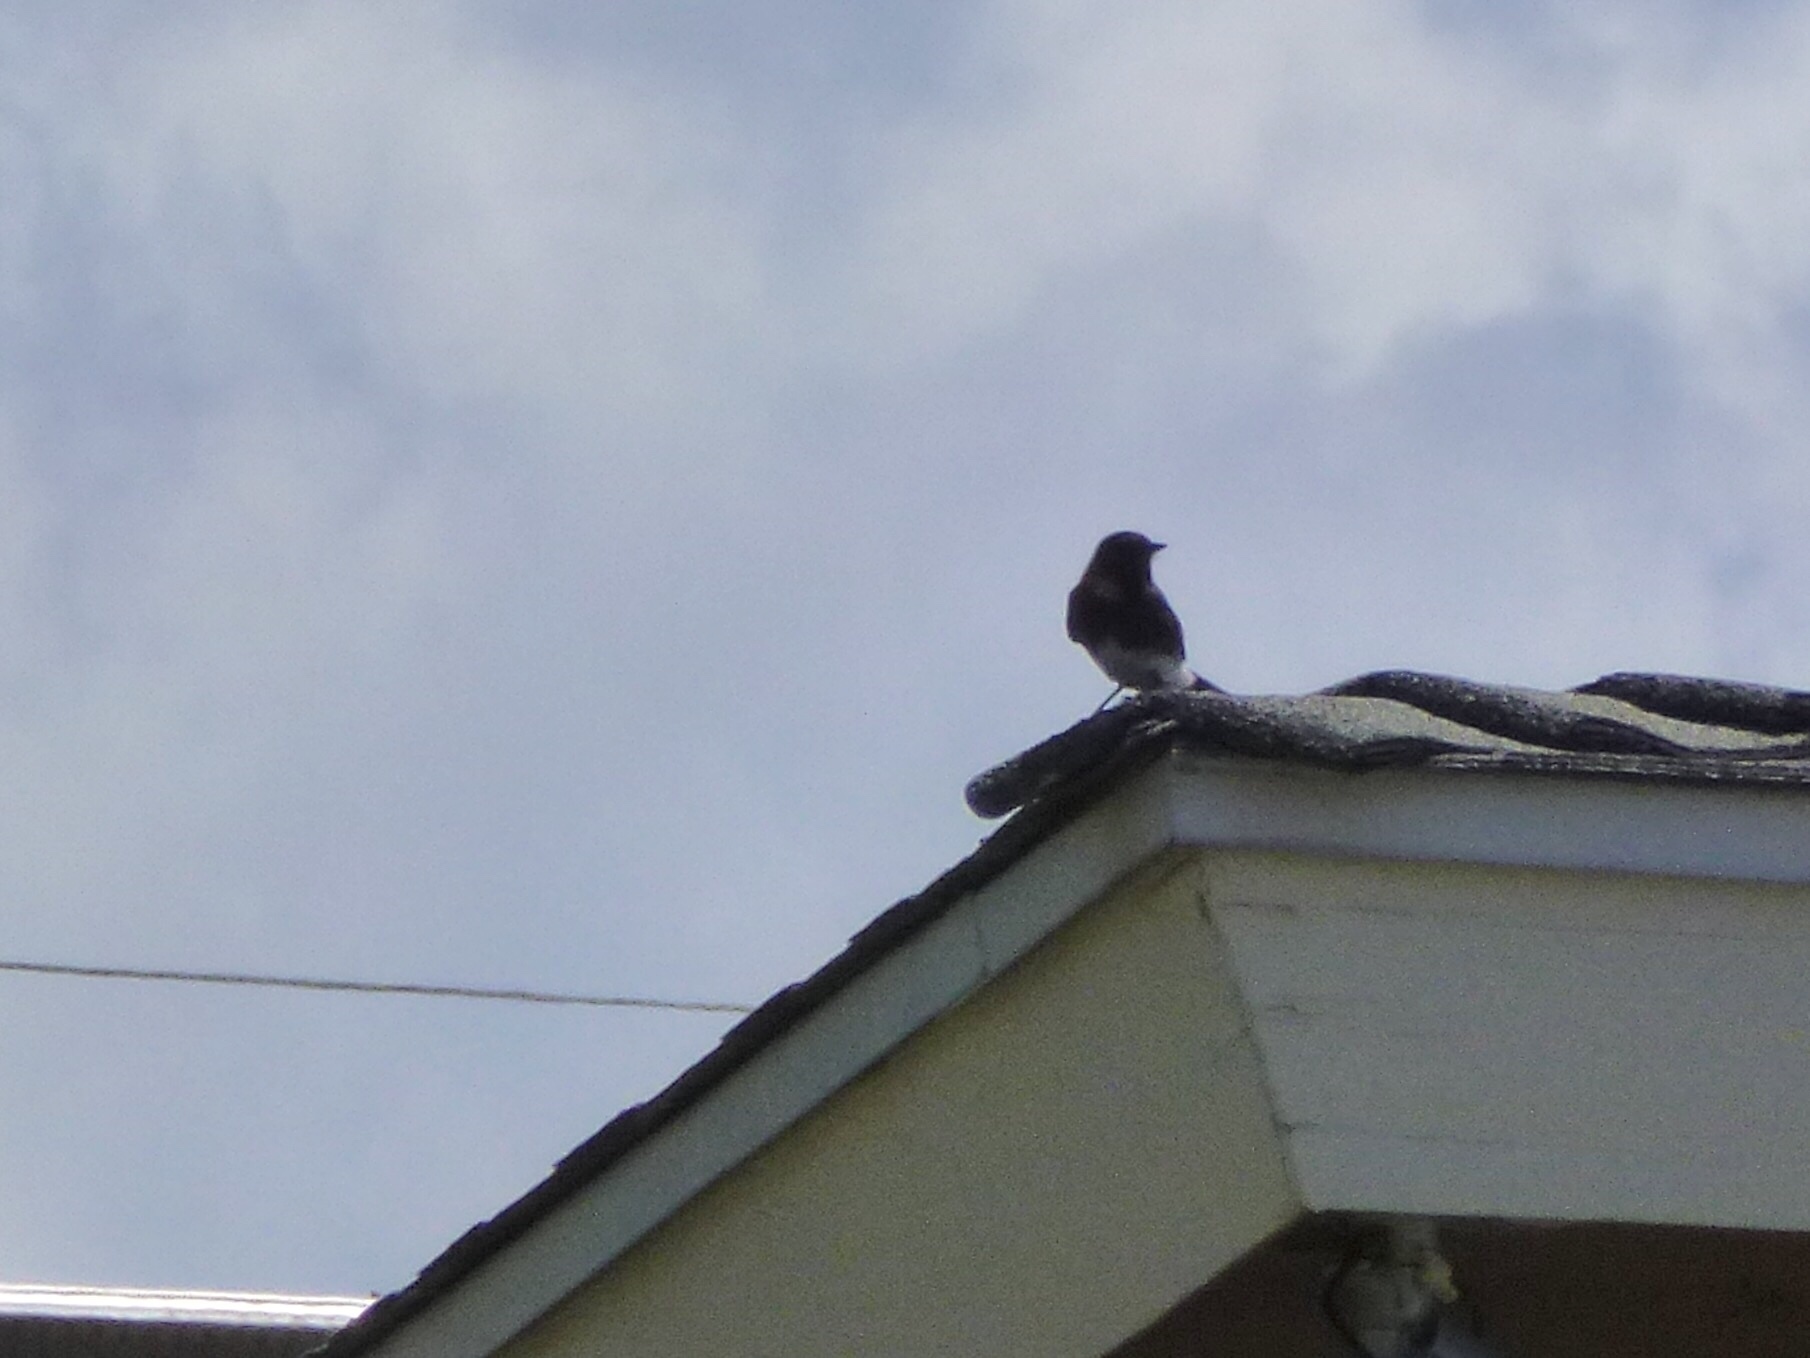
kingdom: Animalia
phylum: Chordata
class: Aves
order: Passeriformes
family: Tyrannidae
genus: Sayornis
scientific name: Sayornis nigricans
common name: Black phoebe
